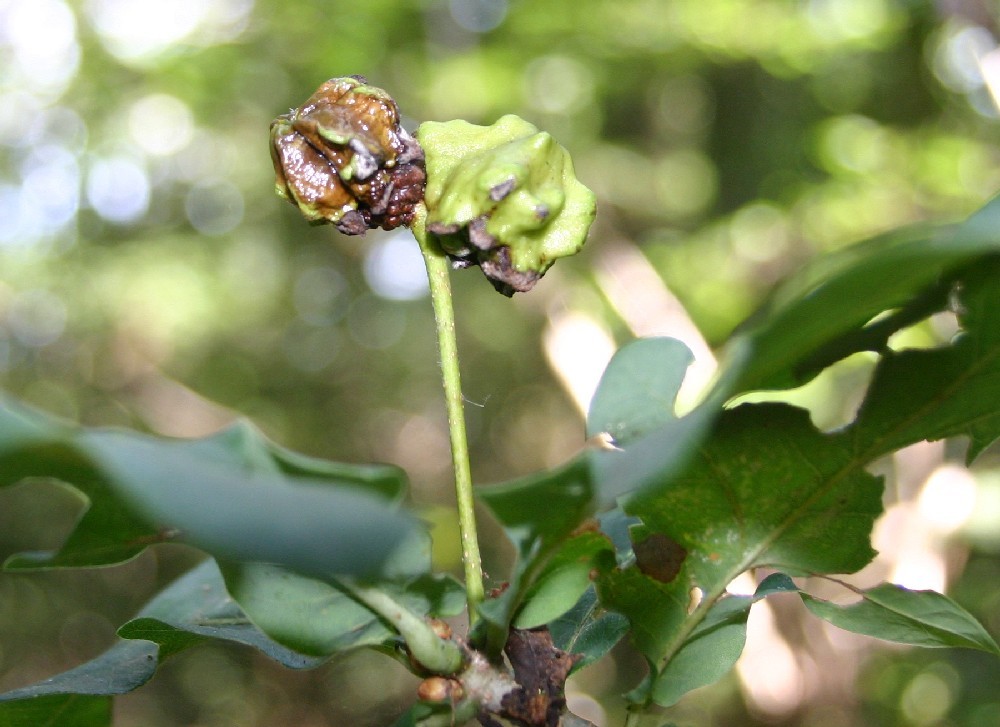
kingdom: Animalia
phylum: Arthropoda
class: Insecta
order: Hymenoptera
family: Cynipidae
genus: Andricus
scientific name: Andricus quercuscalicis
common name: Knopper gall
